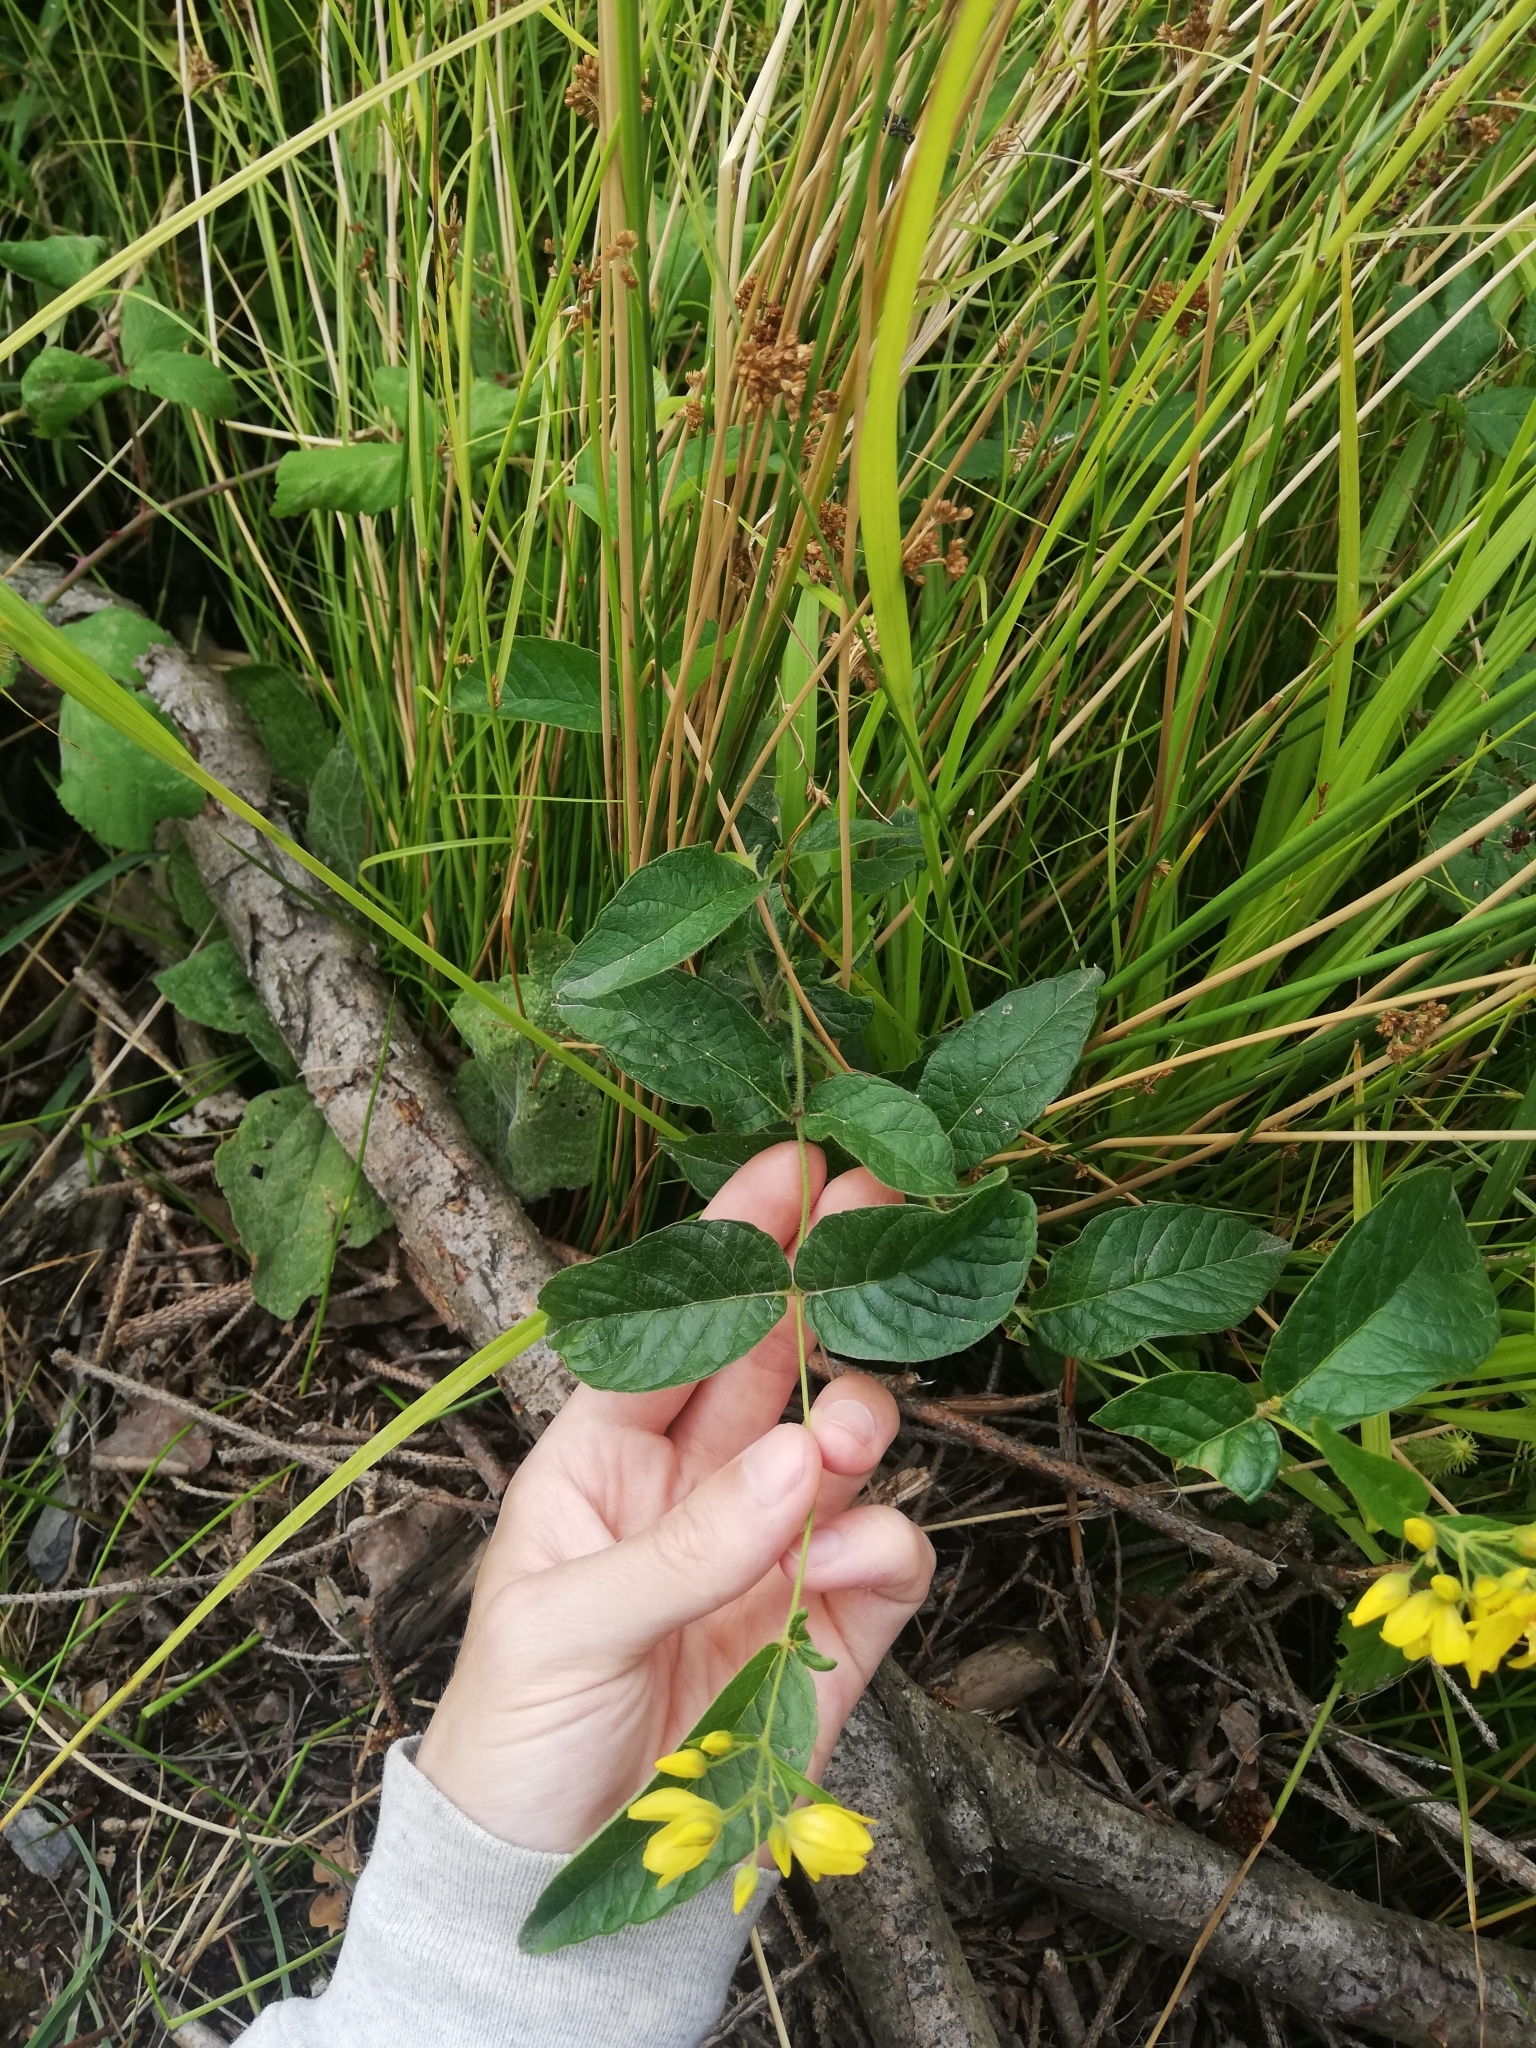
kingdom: Plantae
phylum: Tracheophyta
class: Magnoliopsida
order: Ericales
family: Primulaceae
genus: Lysimachia
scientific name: Lysimachia vulgaris
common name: Yellow loosestrife
